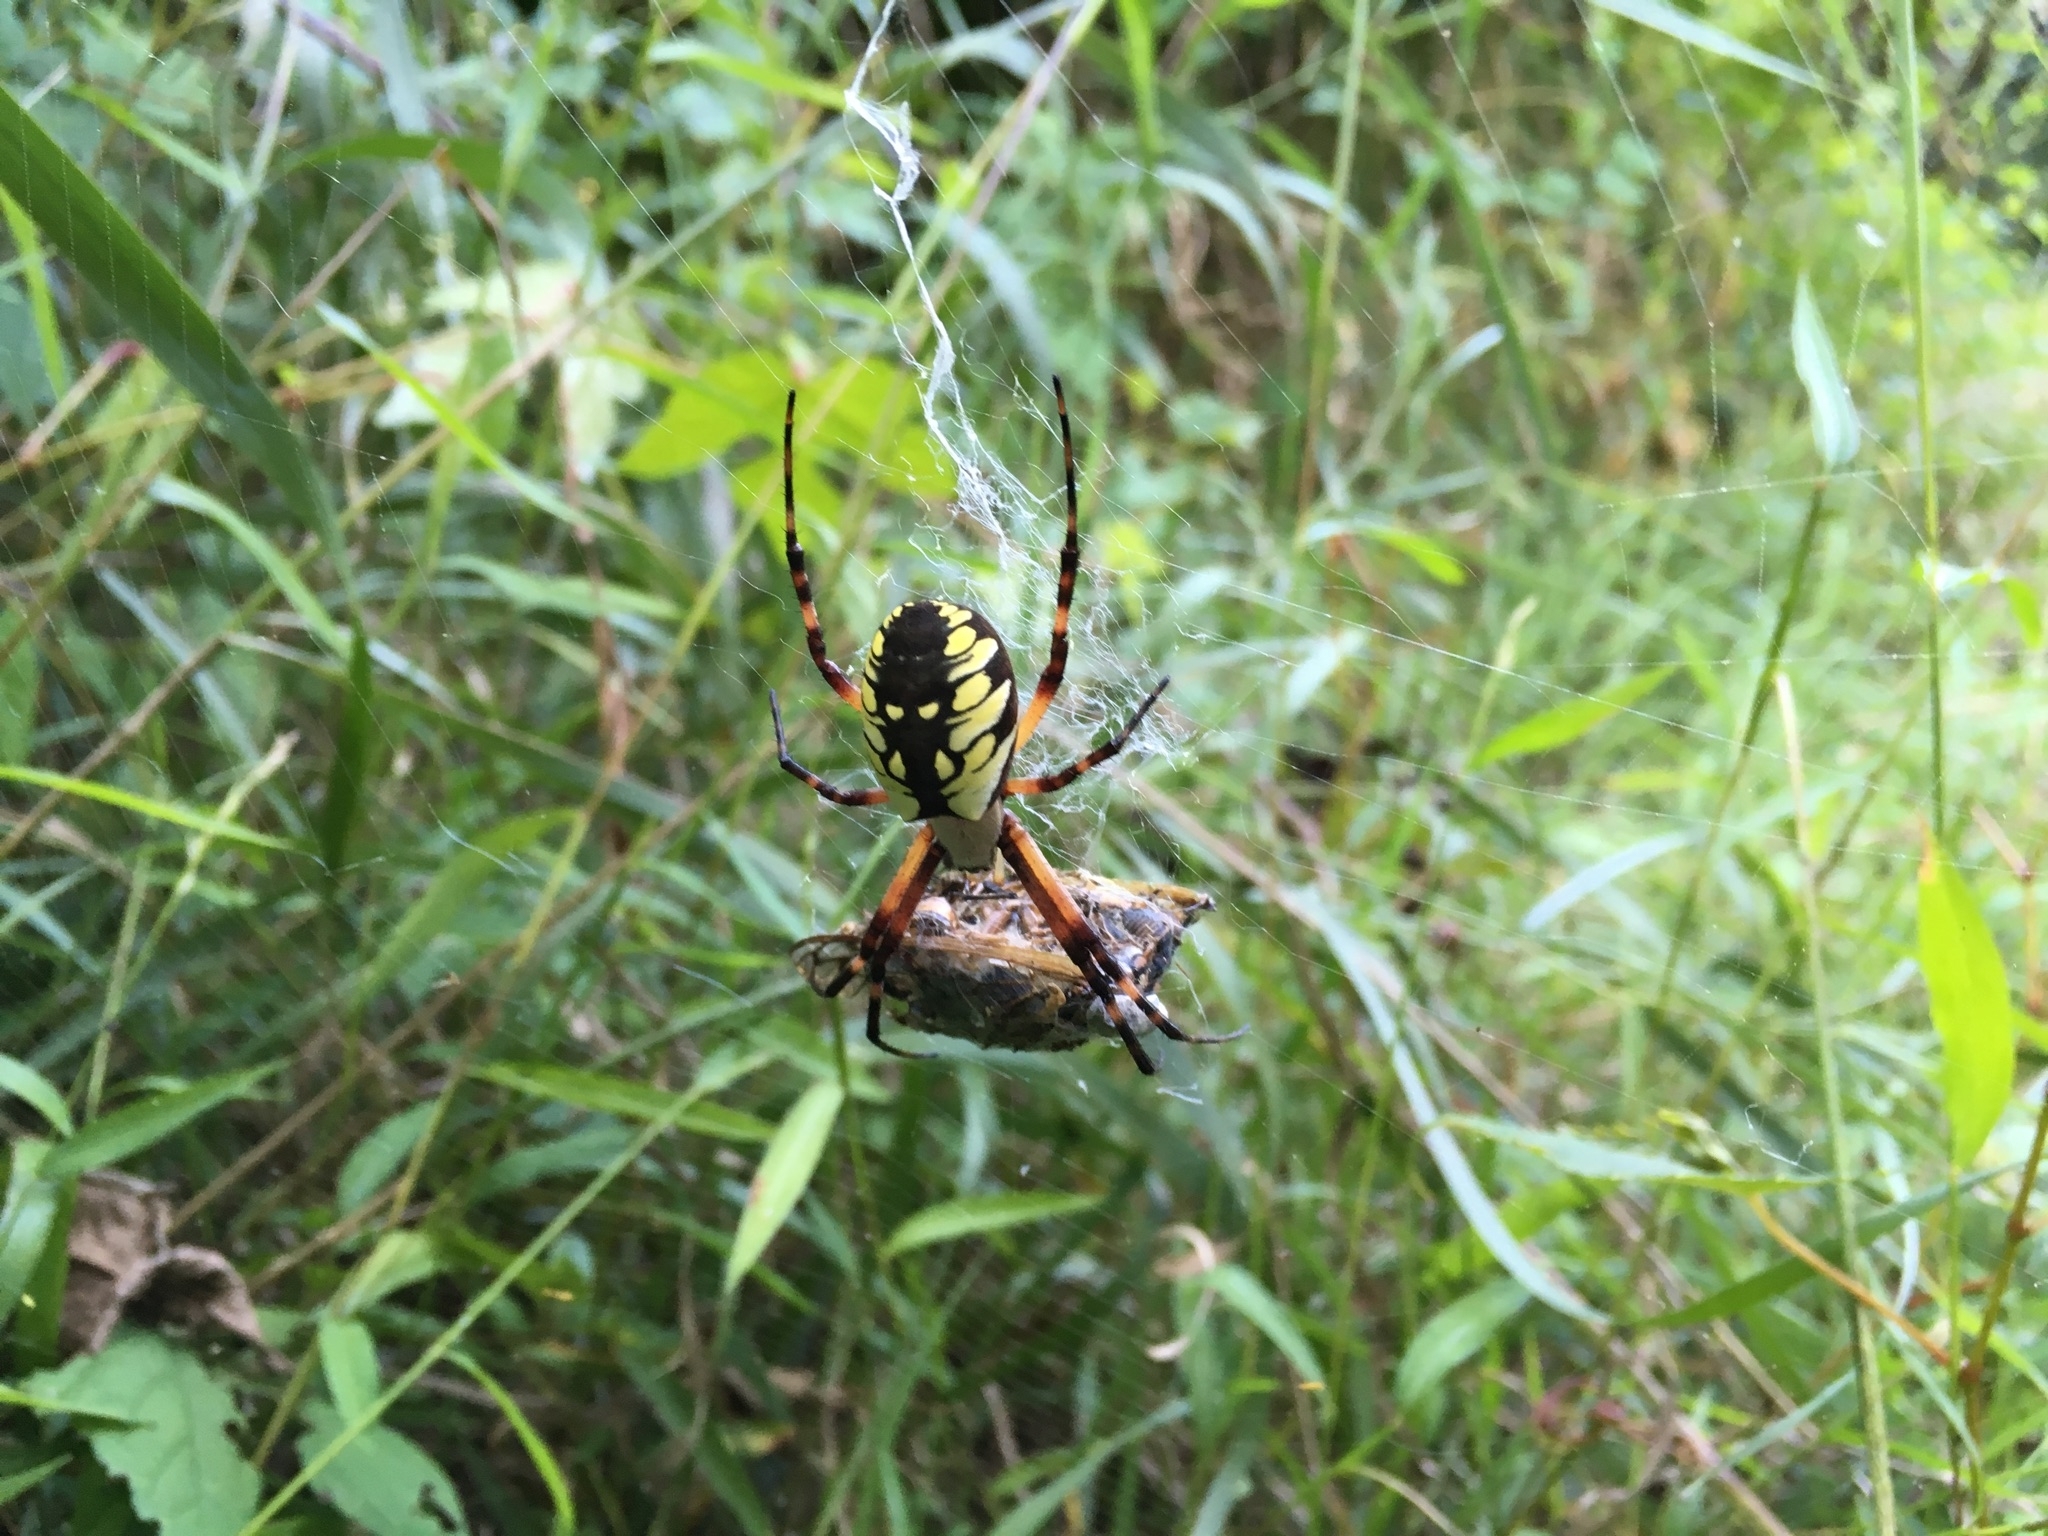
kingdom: Animalia
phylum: Arthropoda
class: Arachnida
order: Araneae
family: Araneidae
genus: Argiope
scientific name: Argiope aurantia
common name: Orb weavers
